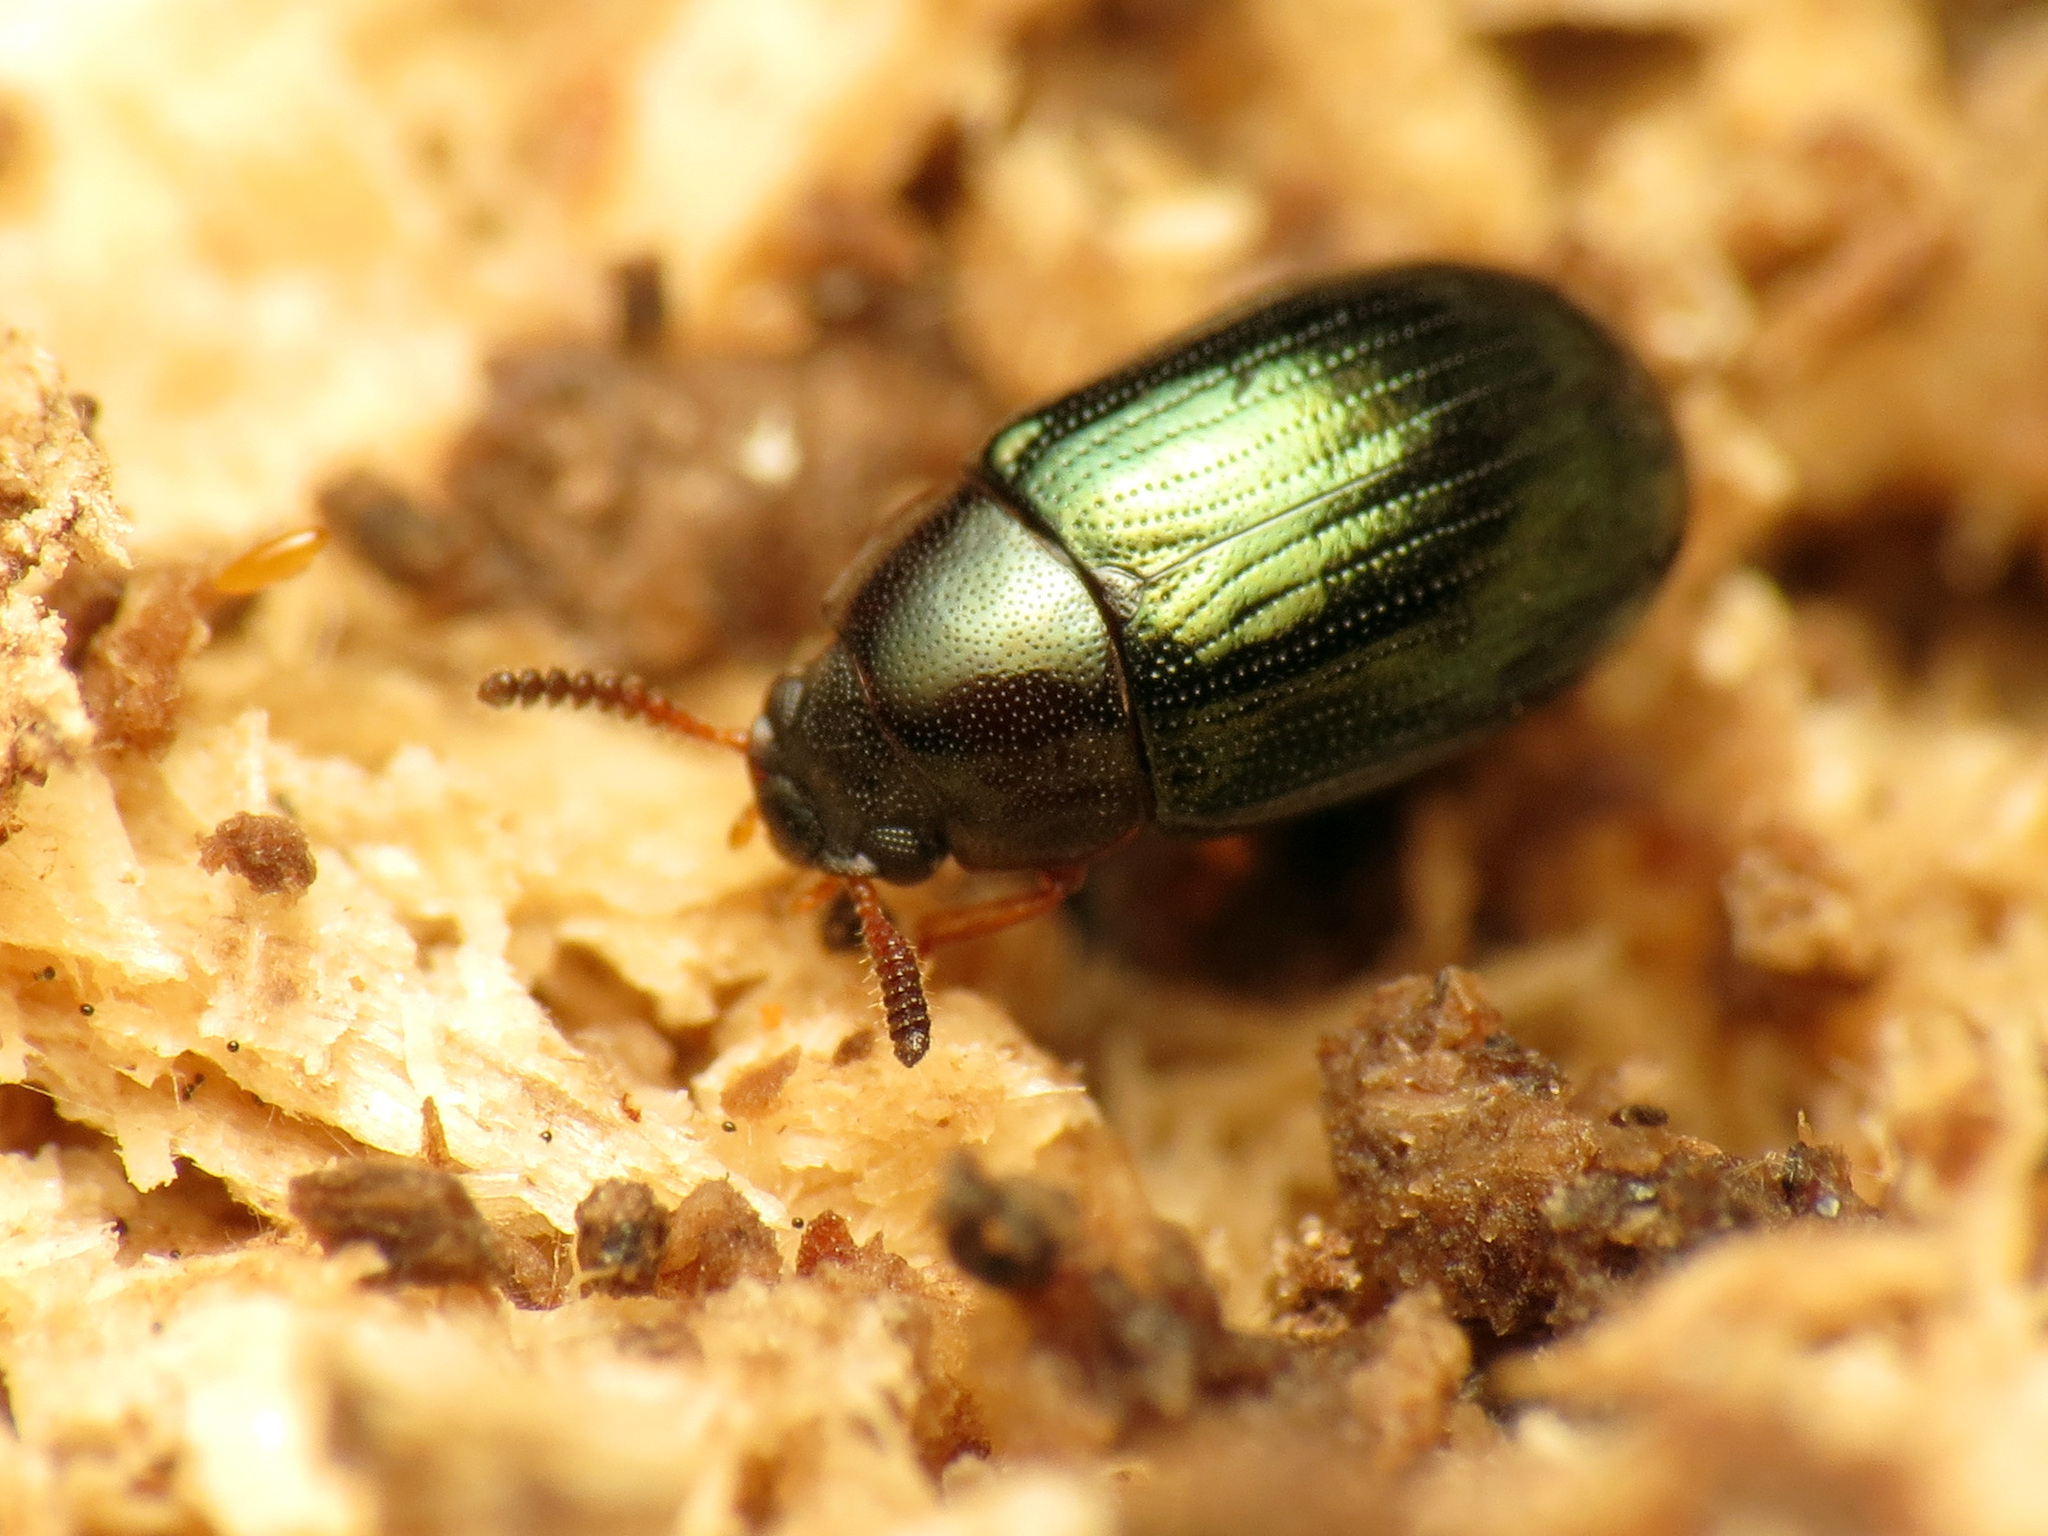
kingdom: Animalia
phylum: Arthropoda
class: Insecta
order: Coleoptera
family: Tenebrionidae
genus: Neomida
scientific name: Neomida bicornis
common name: Two-horned darkling beetle
